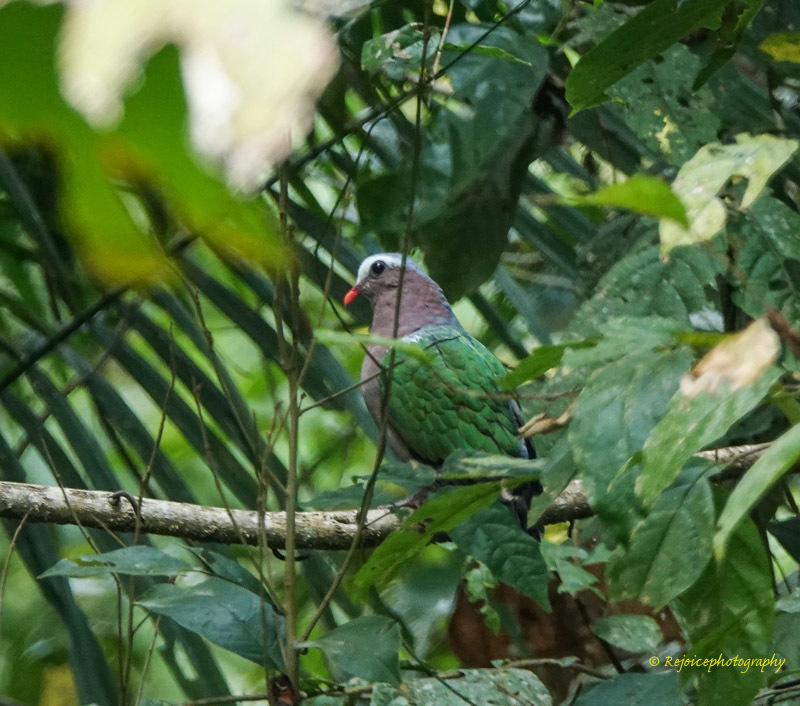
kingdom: Animalia
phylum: Chordata
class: Aves
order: Columbiformes
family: Columbidae
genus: Chalcophaps
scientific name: Chalcophaps indica
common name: Common emerald dove
